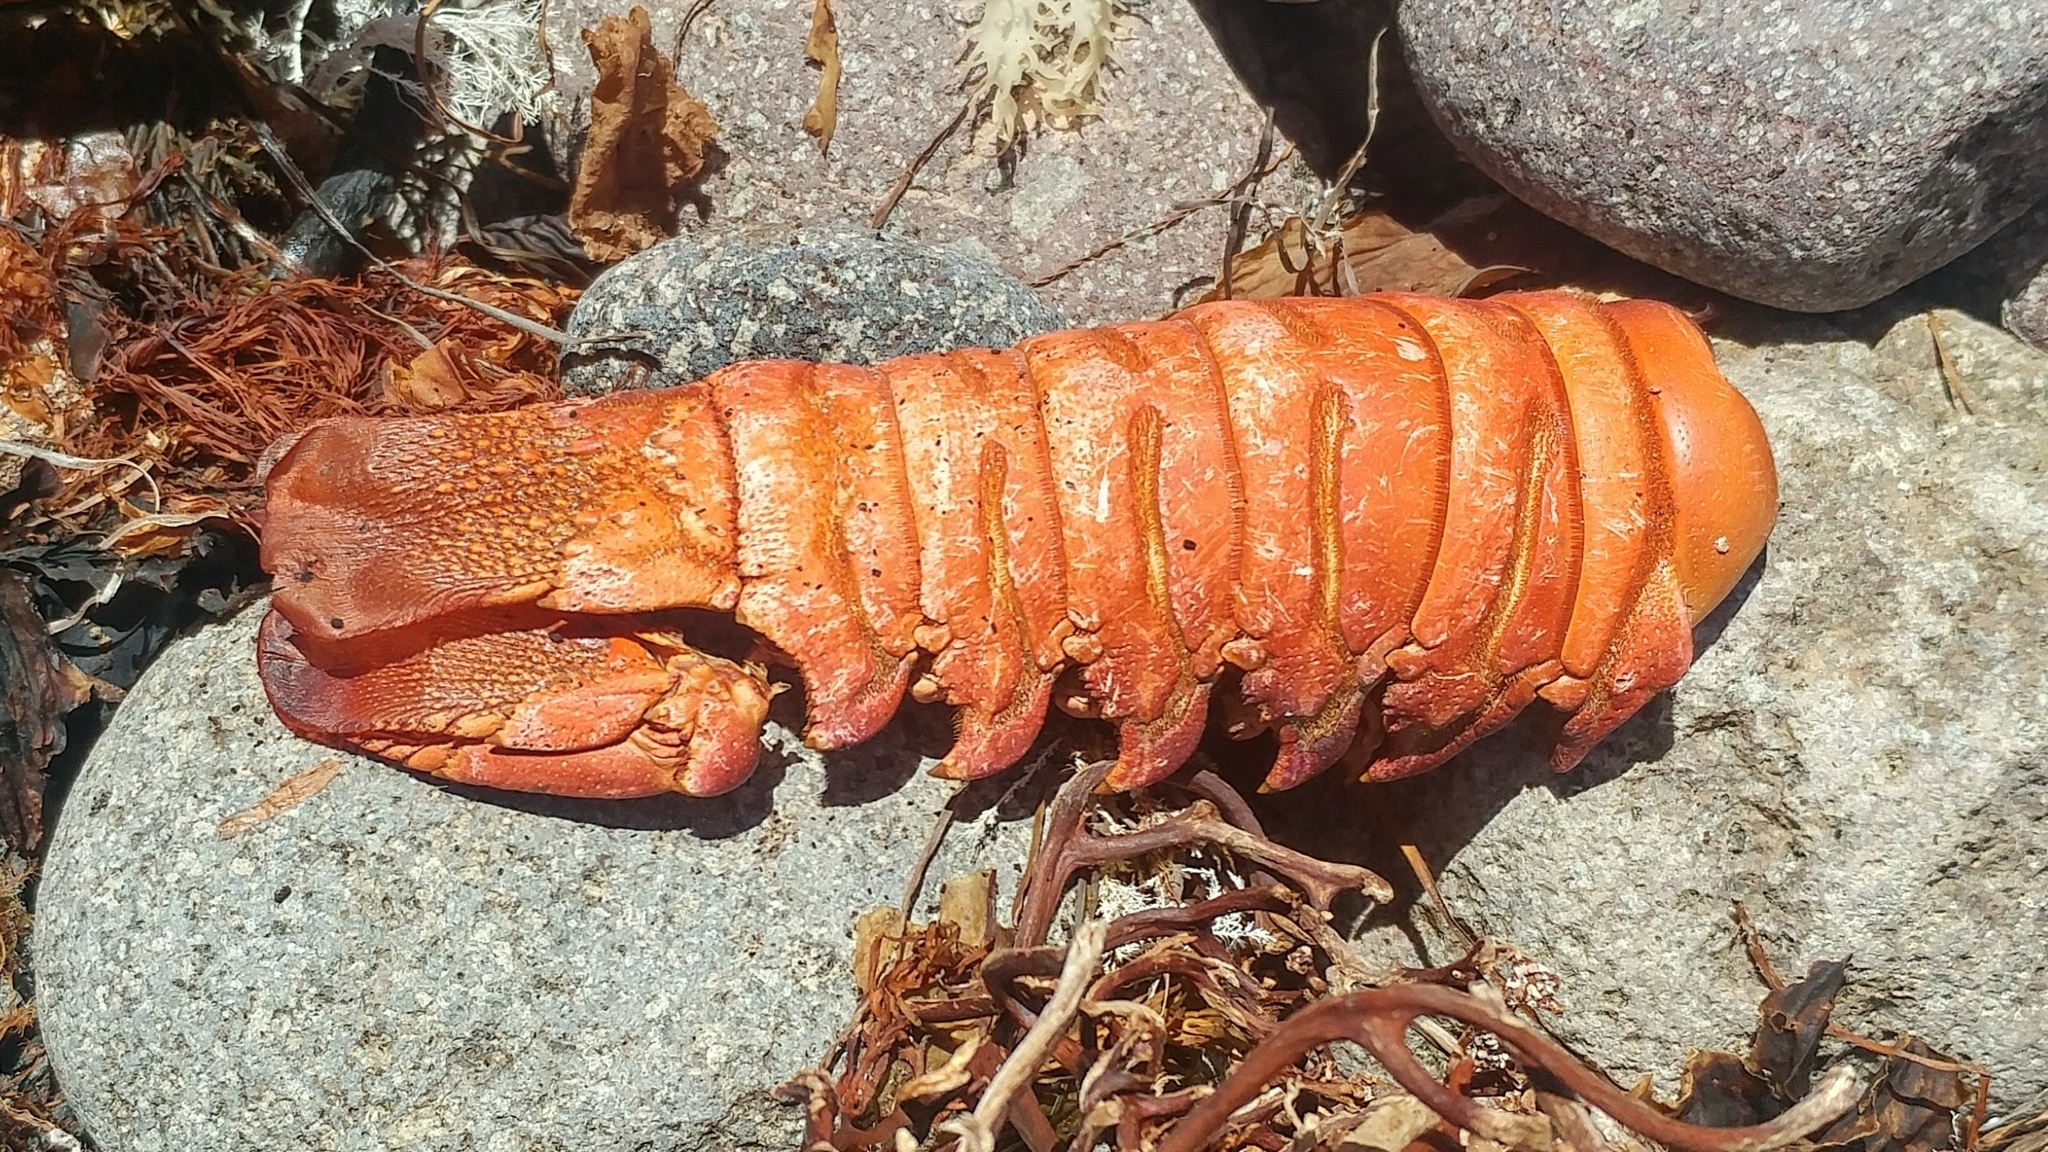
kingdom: Animalia
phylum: Arthropoda
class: Malacostraca
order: Decapoda
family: Palinuridae
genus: Panulirus
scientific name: Panulirus interruptus
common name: California spiny lobster
